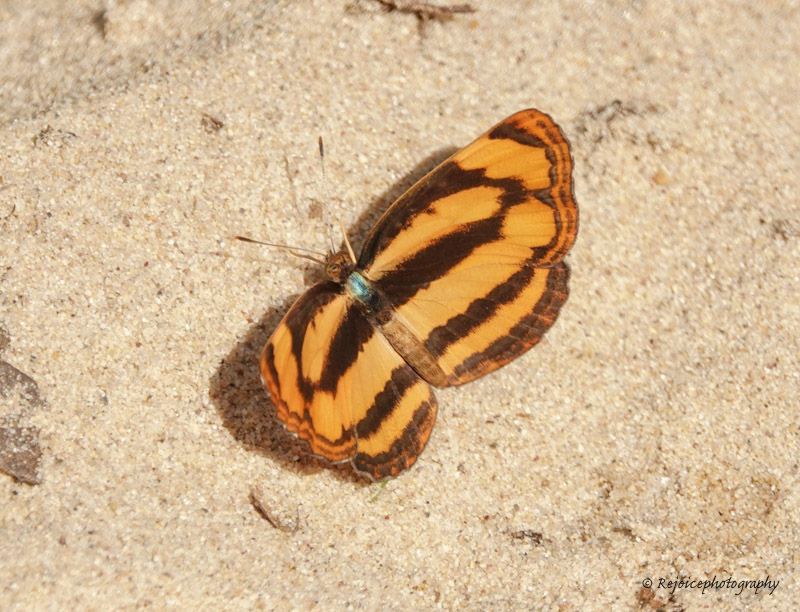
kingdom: Animalia
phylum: Arthropoda
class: Insecta
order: Lepidoptera
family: Nymphalidae
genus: Pantoporia
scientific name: Pantoporia hordonia
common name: Common lascar
